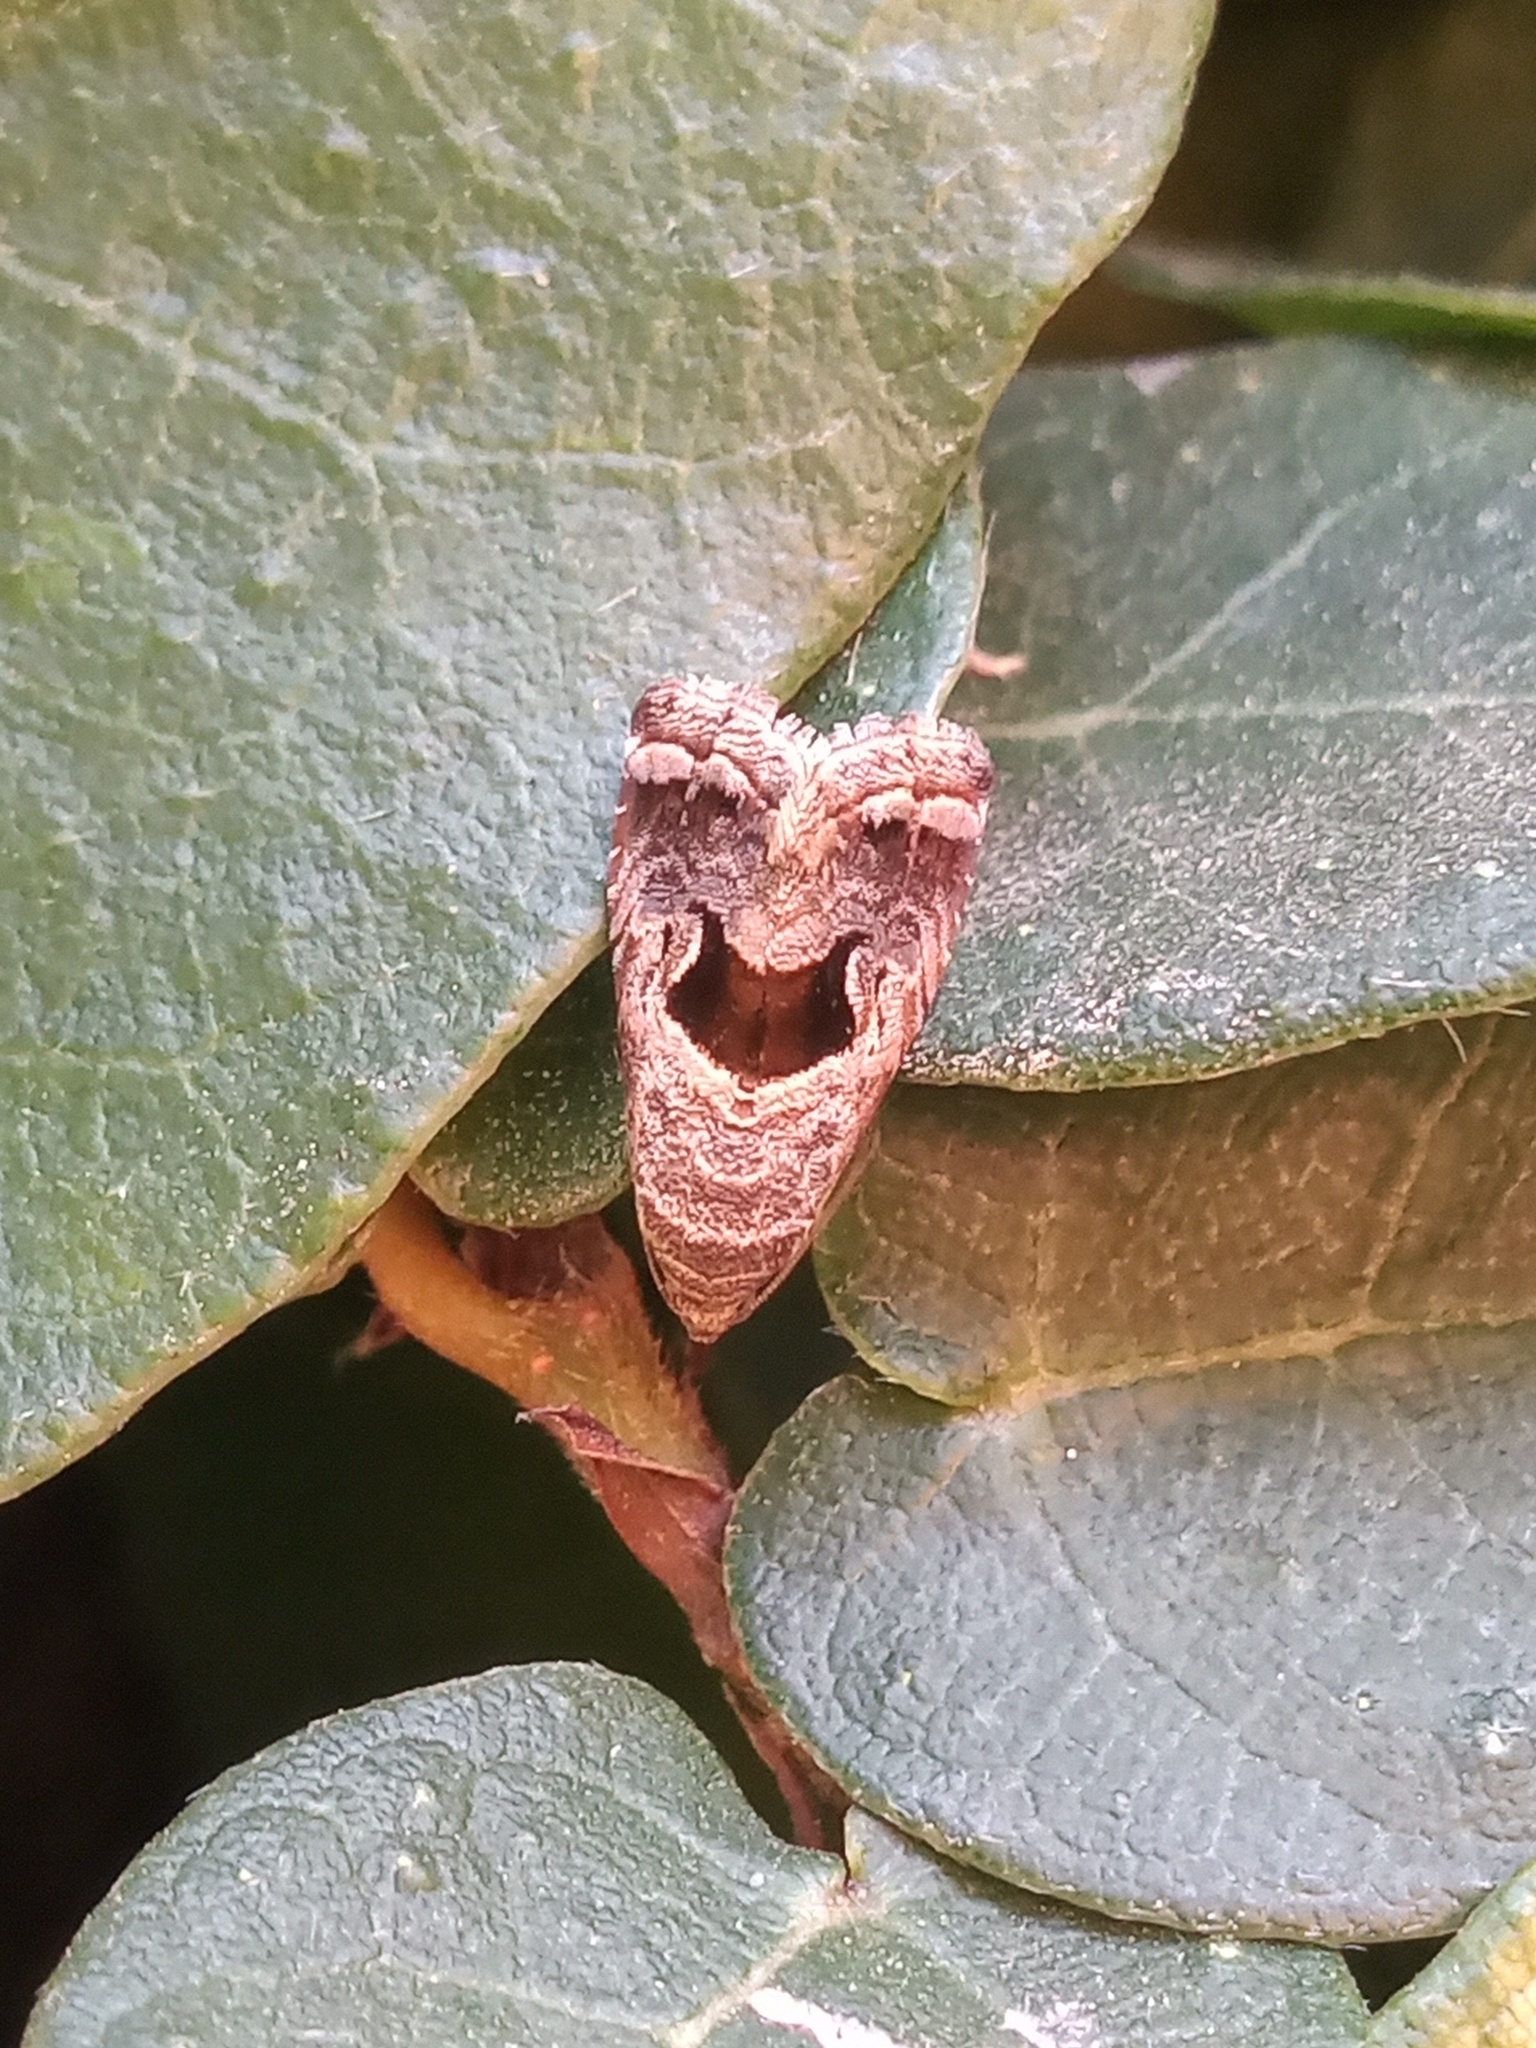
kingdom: Animalia
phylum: Arthropoda
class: Insecta
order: Lepidoptera
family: Noctuidae
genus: Tripudia
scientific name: Tripudia quadrifera
